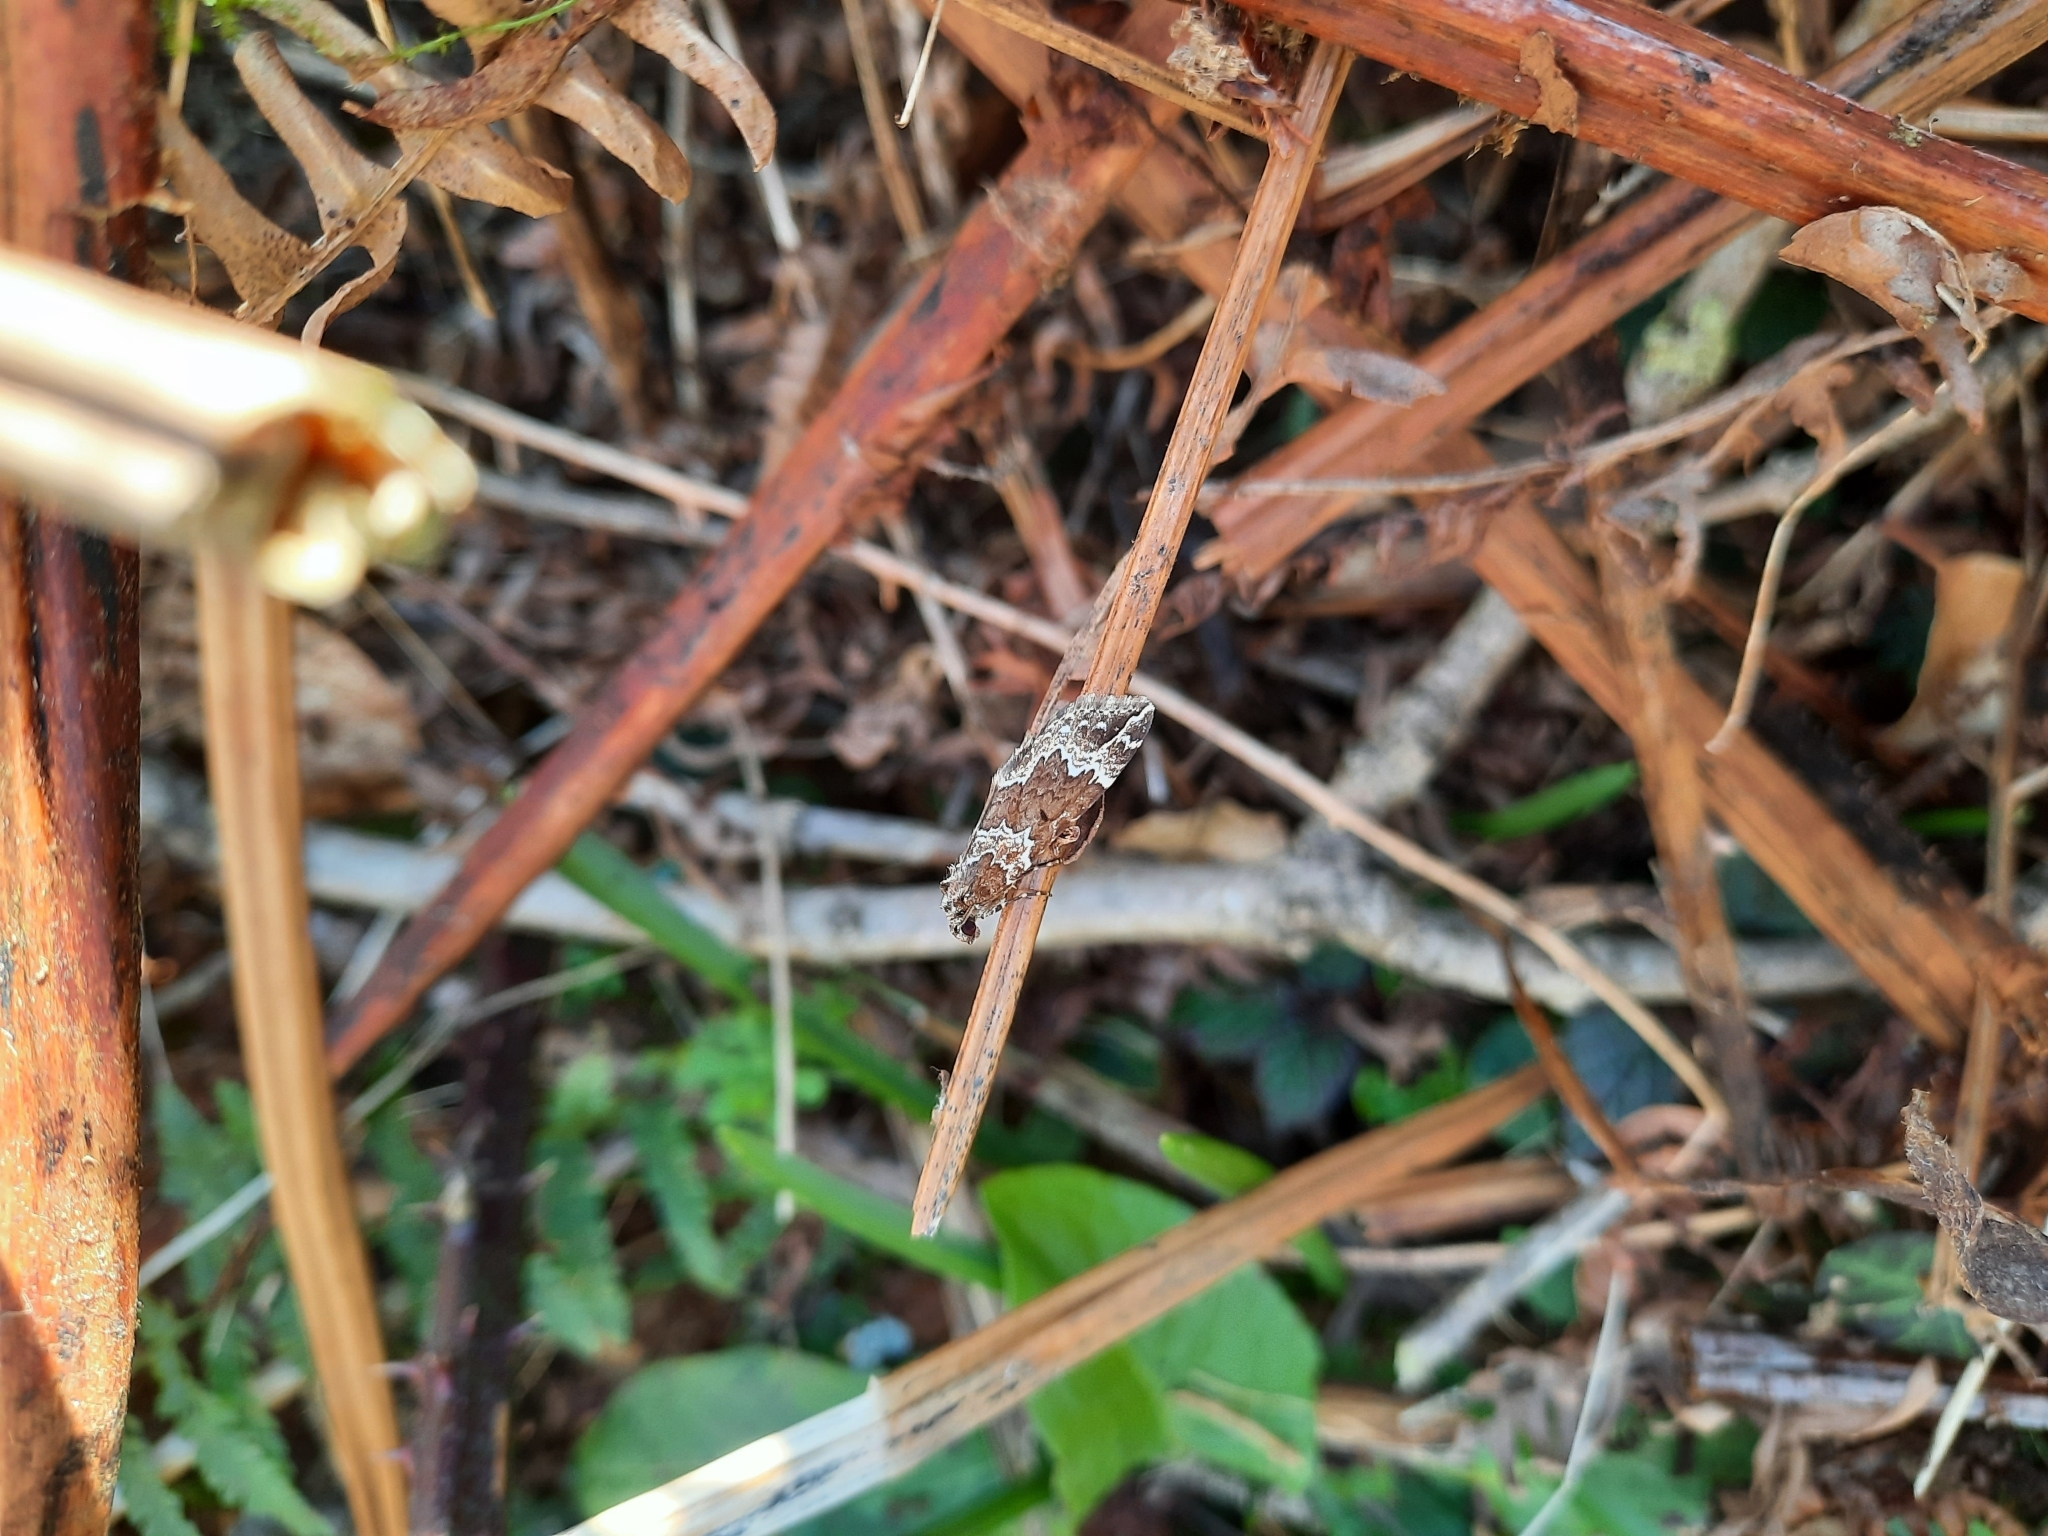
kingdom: Animalia
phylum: Arthropoda
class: Insecta
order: Lepidoptera
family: Geometridae
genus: Lampropteryx
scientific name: Lampropteryx suffumata
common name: Water carpet
